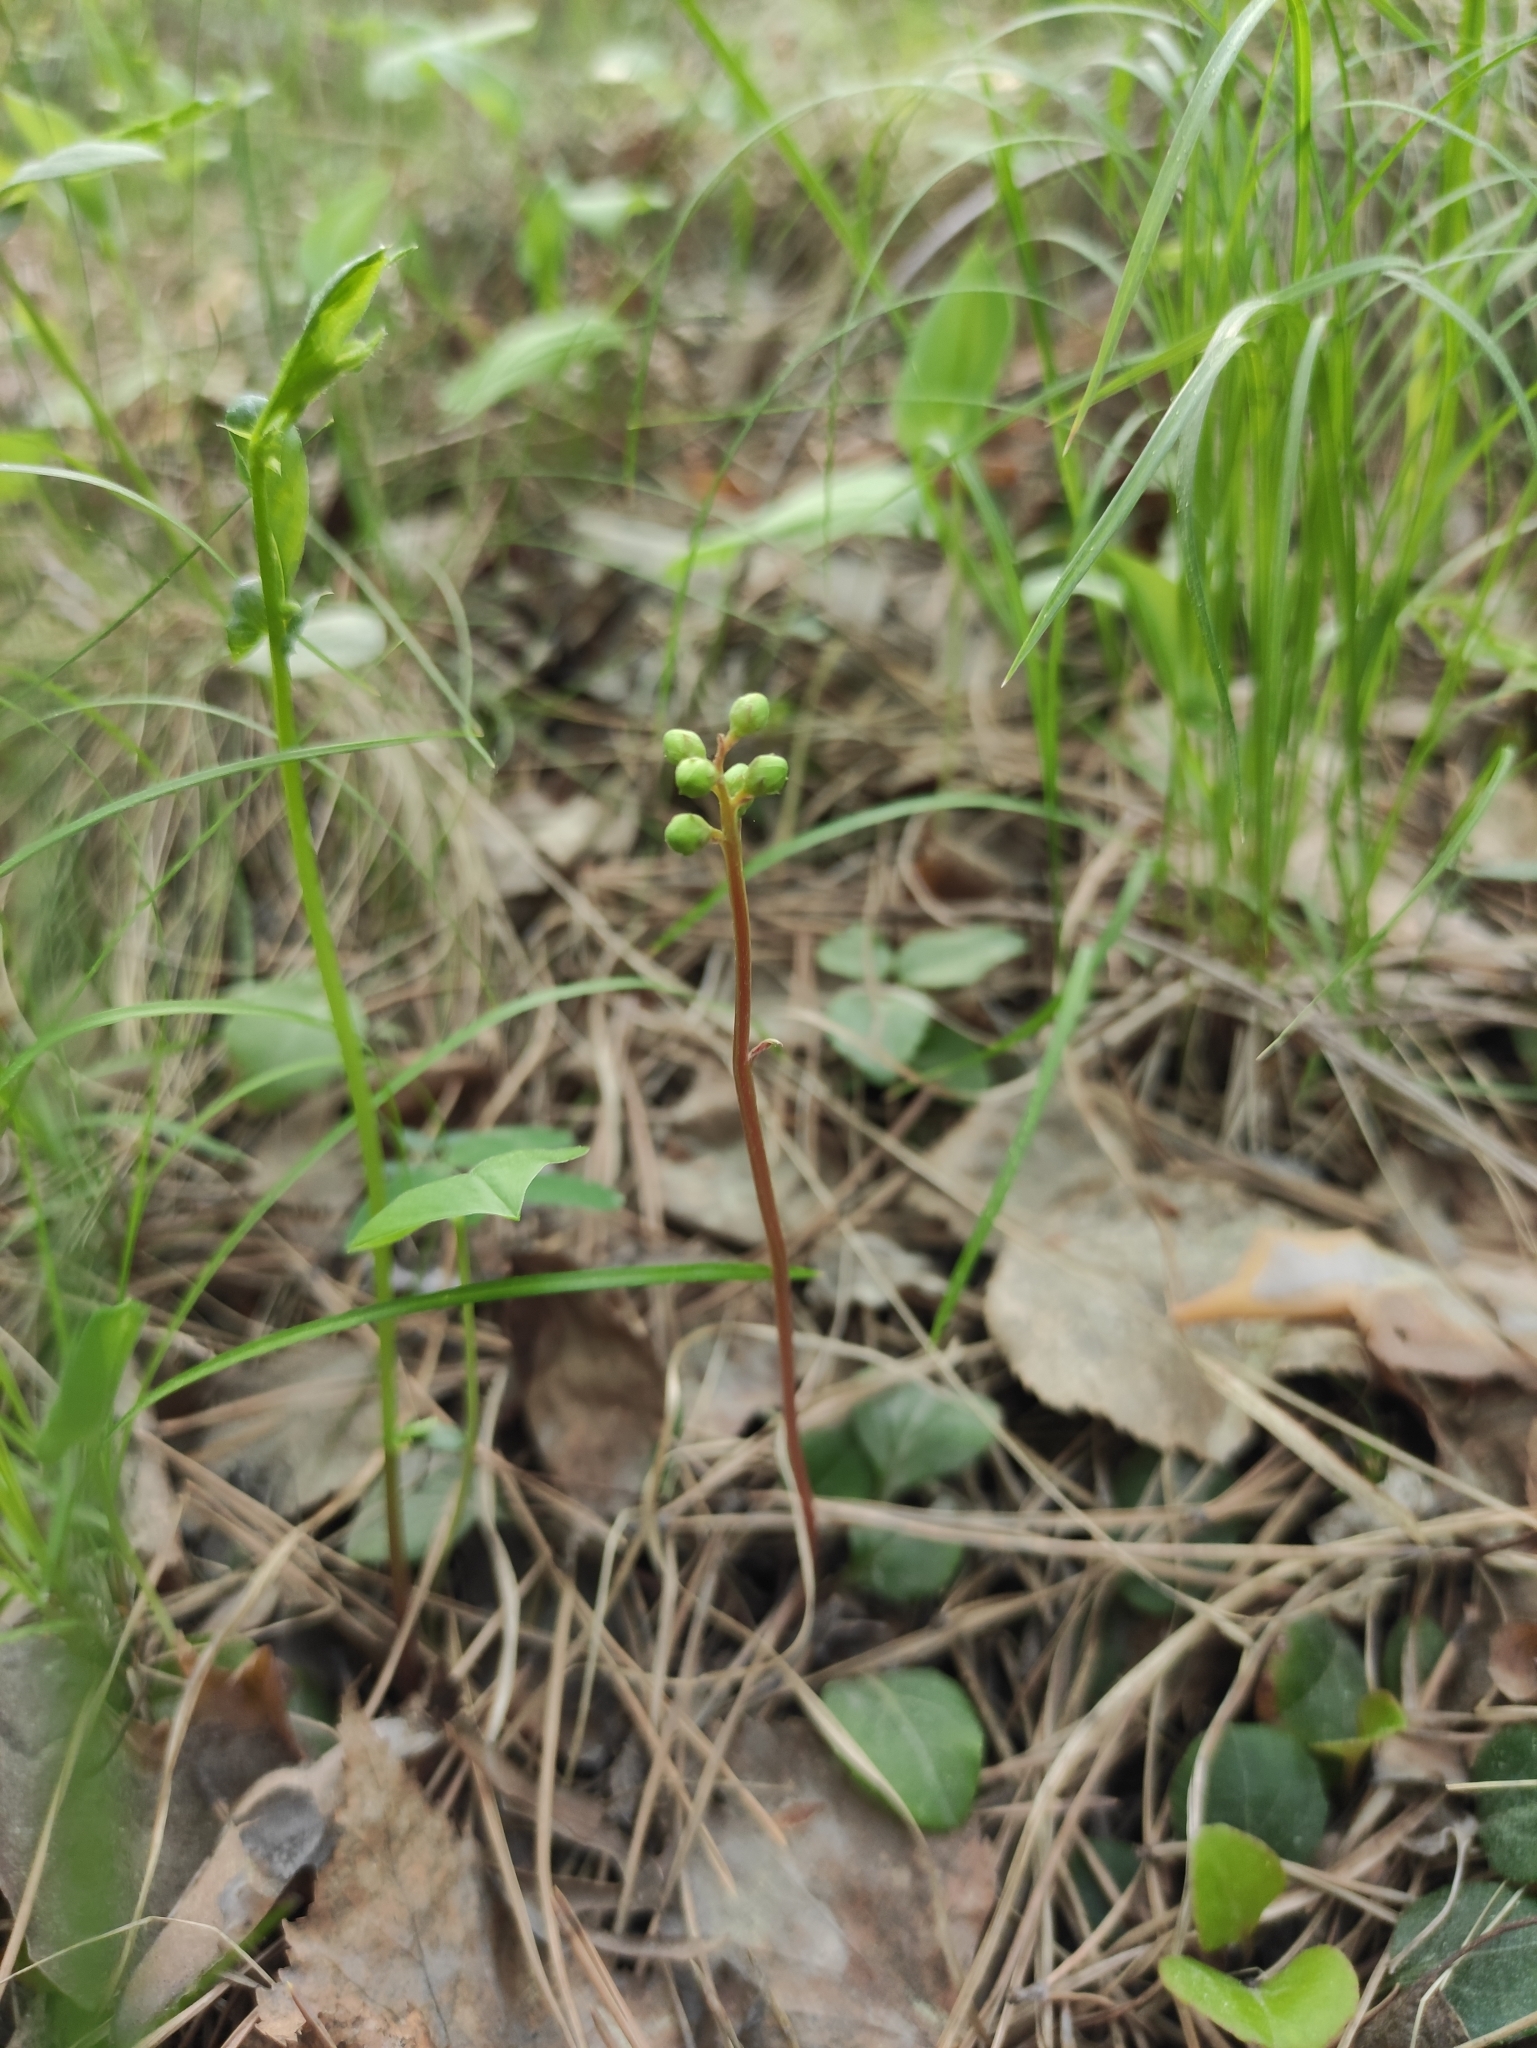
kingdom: Plantae
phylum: Tracheophyta
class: Magnoliopsida
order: Ericales
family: Ericaceae
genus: Pyrola
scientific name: Pyrola chlorantha
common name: Green wintergreen
